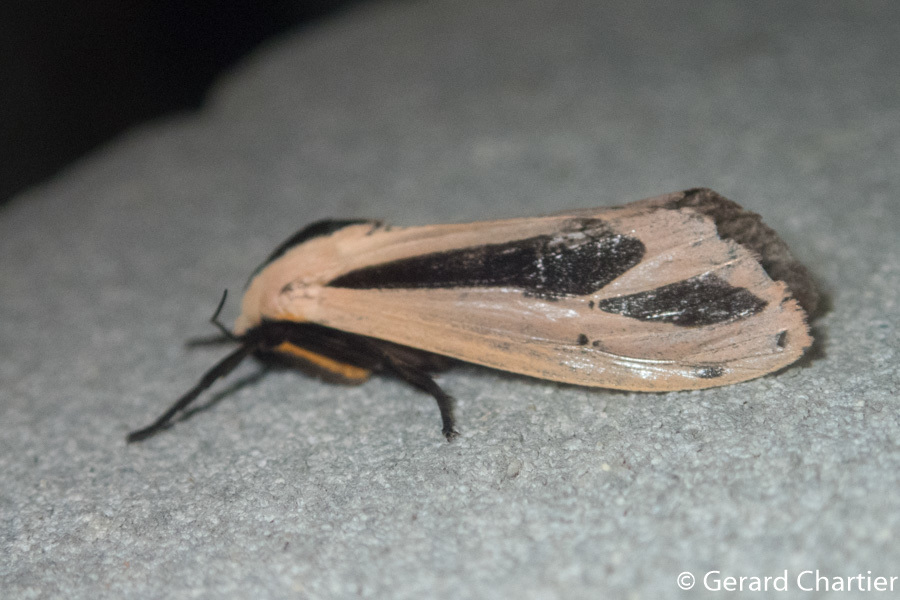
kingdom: Animalia
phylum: Arthropoda
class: Insecta
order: Lepidoptera
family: Erebidae
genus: Creatonotos
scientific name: Creatonotos fasciatus
